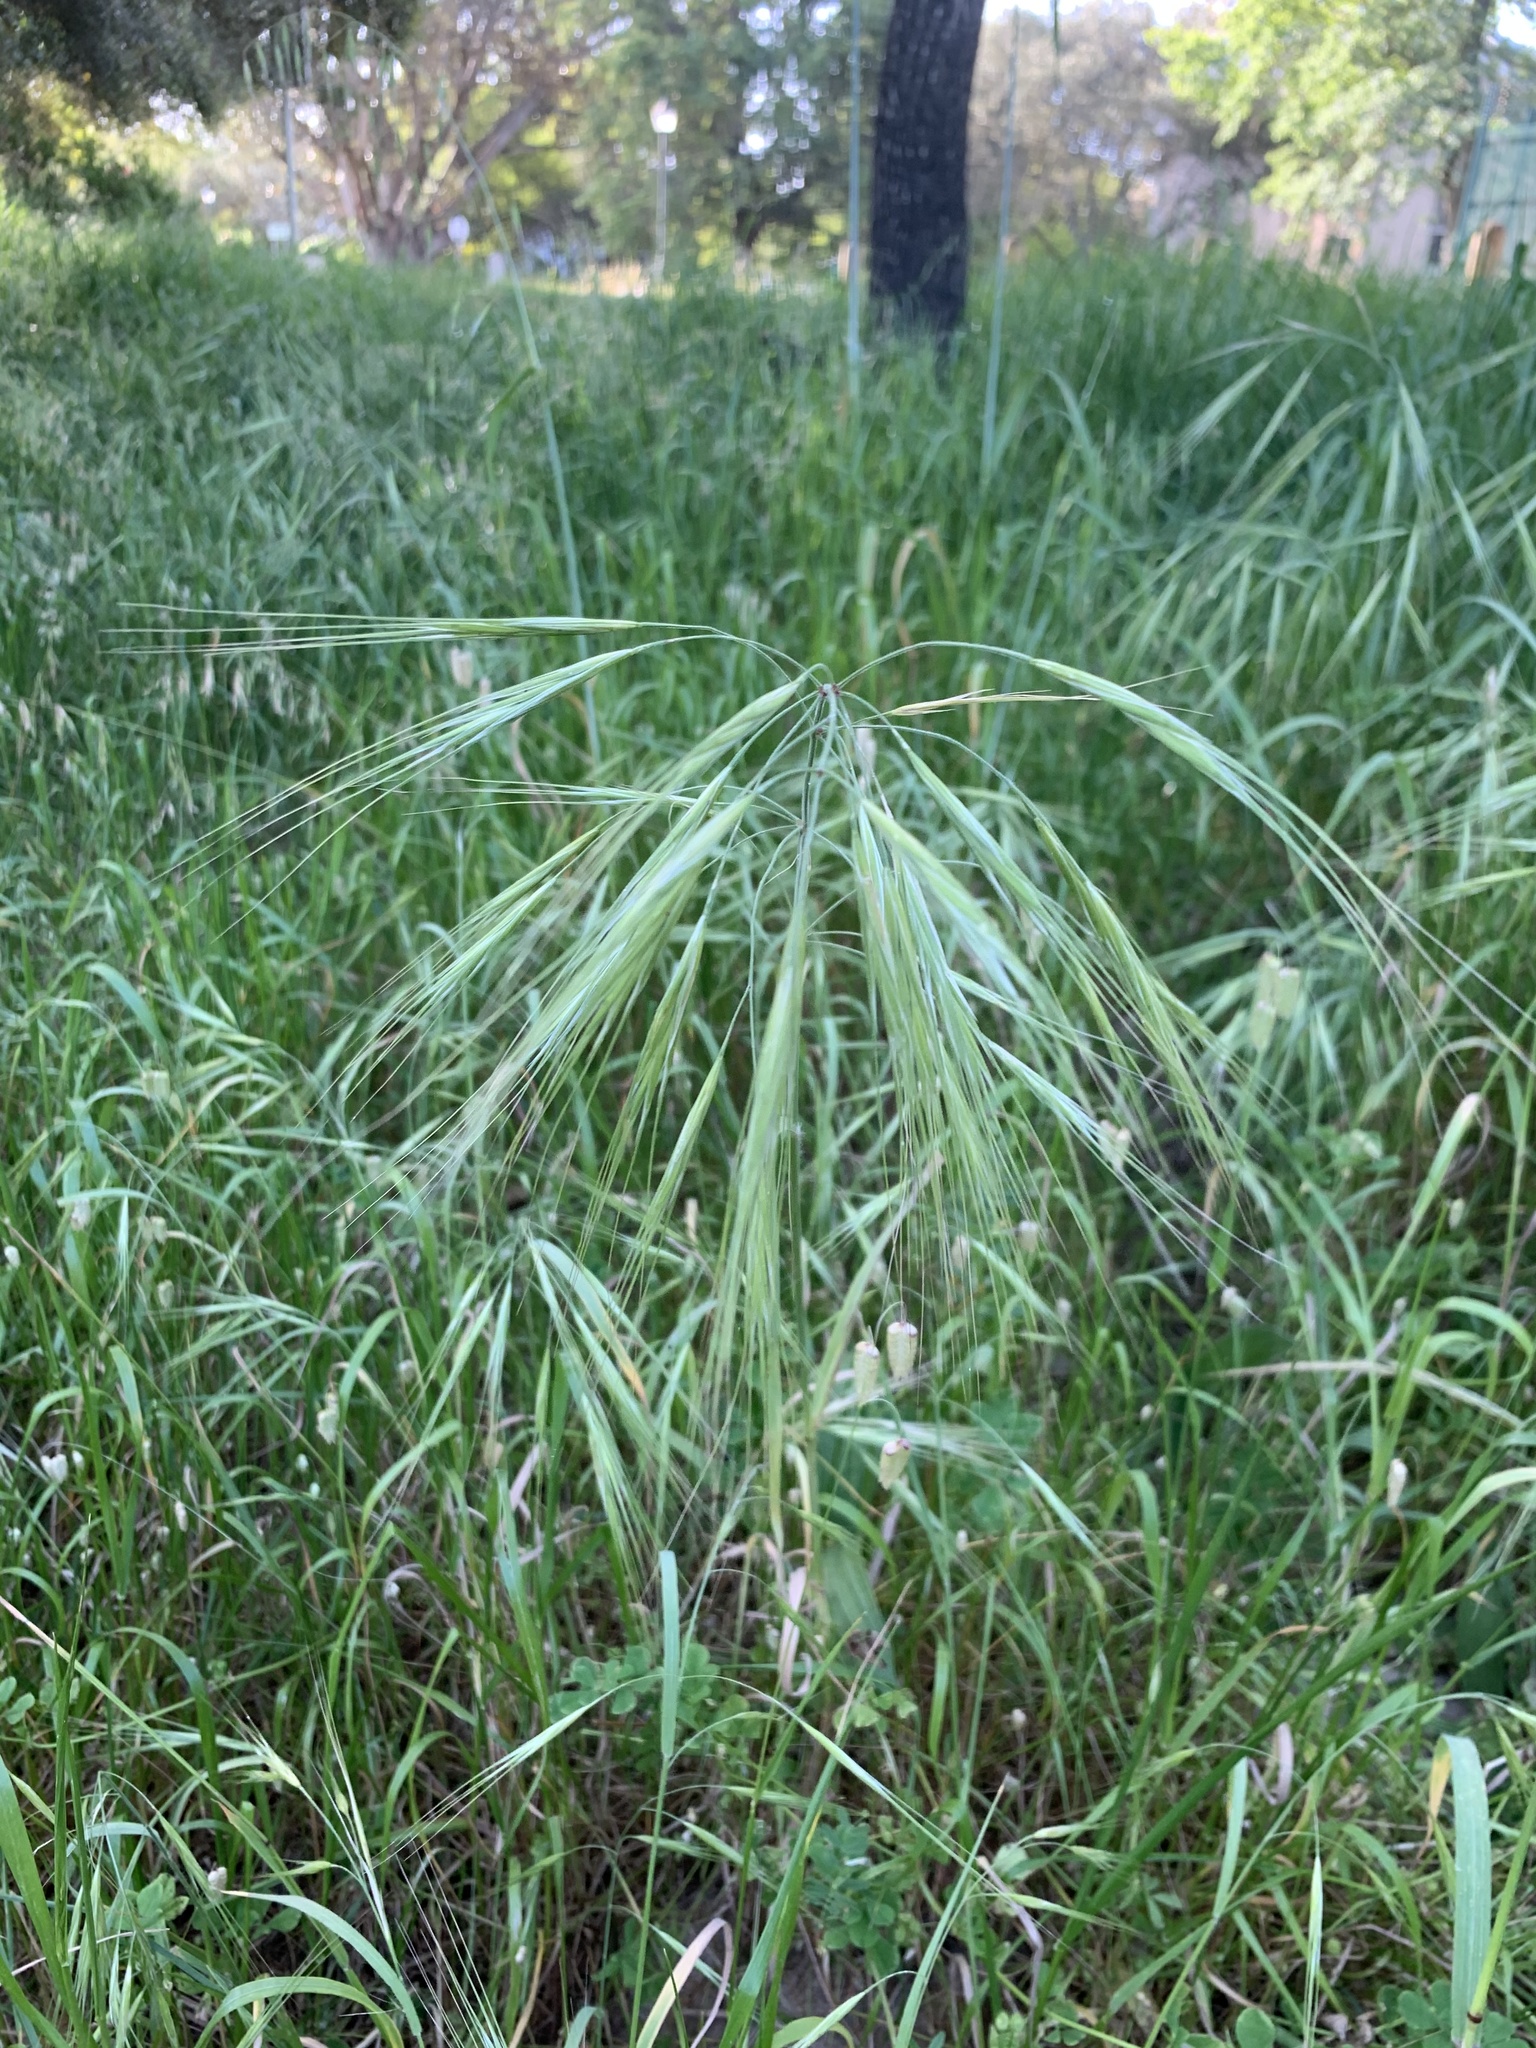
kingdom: Plantae
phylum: Tracheophyta
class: Liliopsida
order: Poales
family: Poaceae
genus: Bromus
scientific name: Bromus diandrus
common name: Ripgut brome
